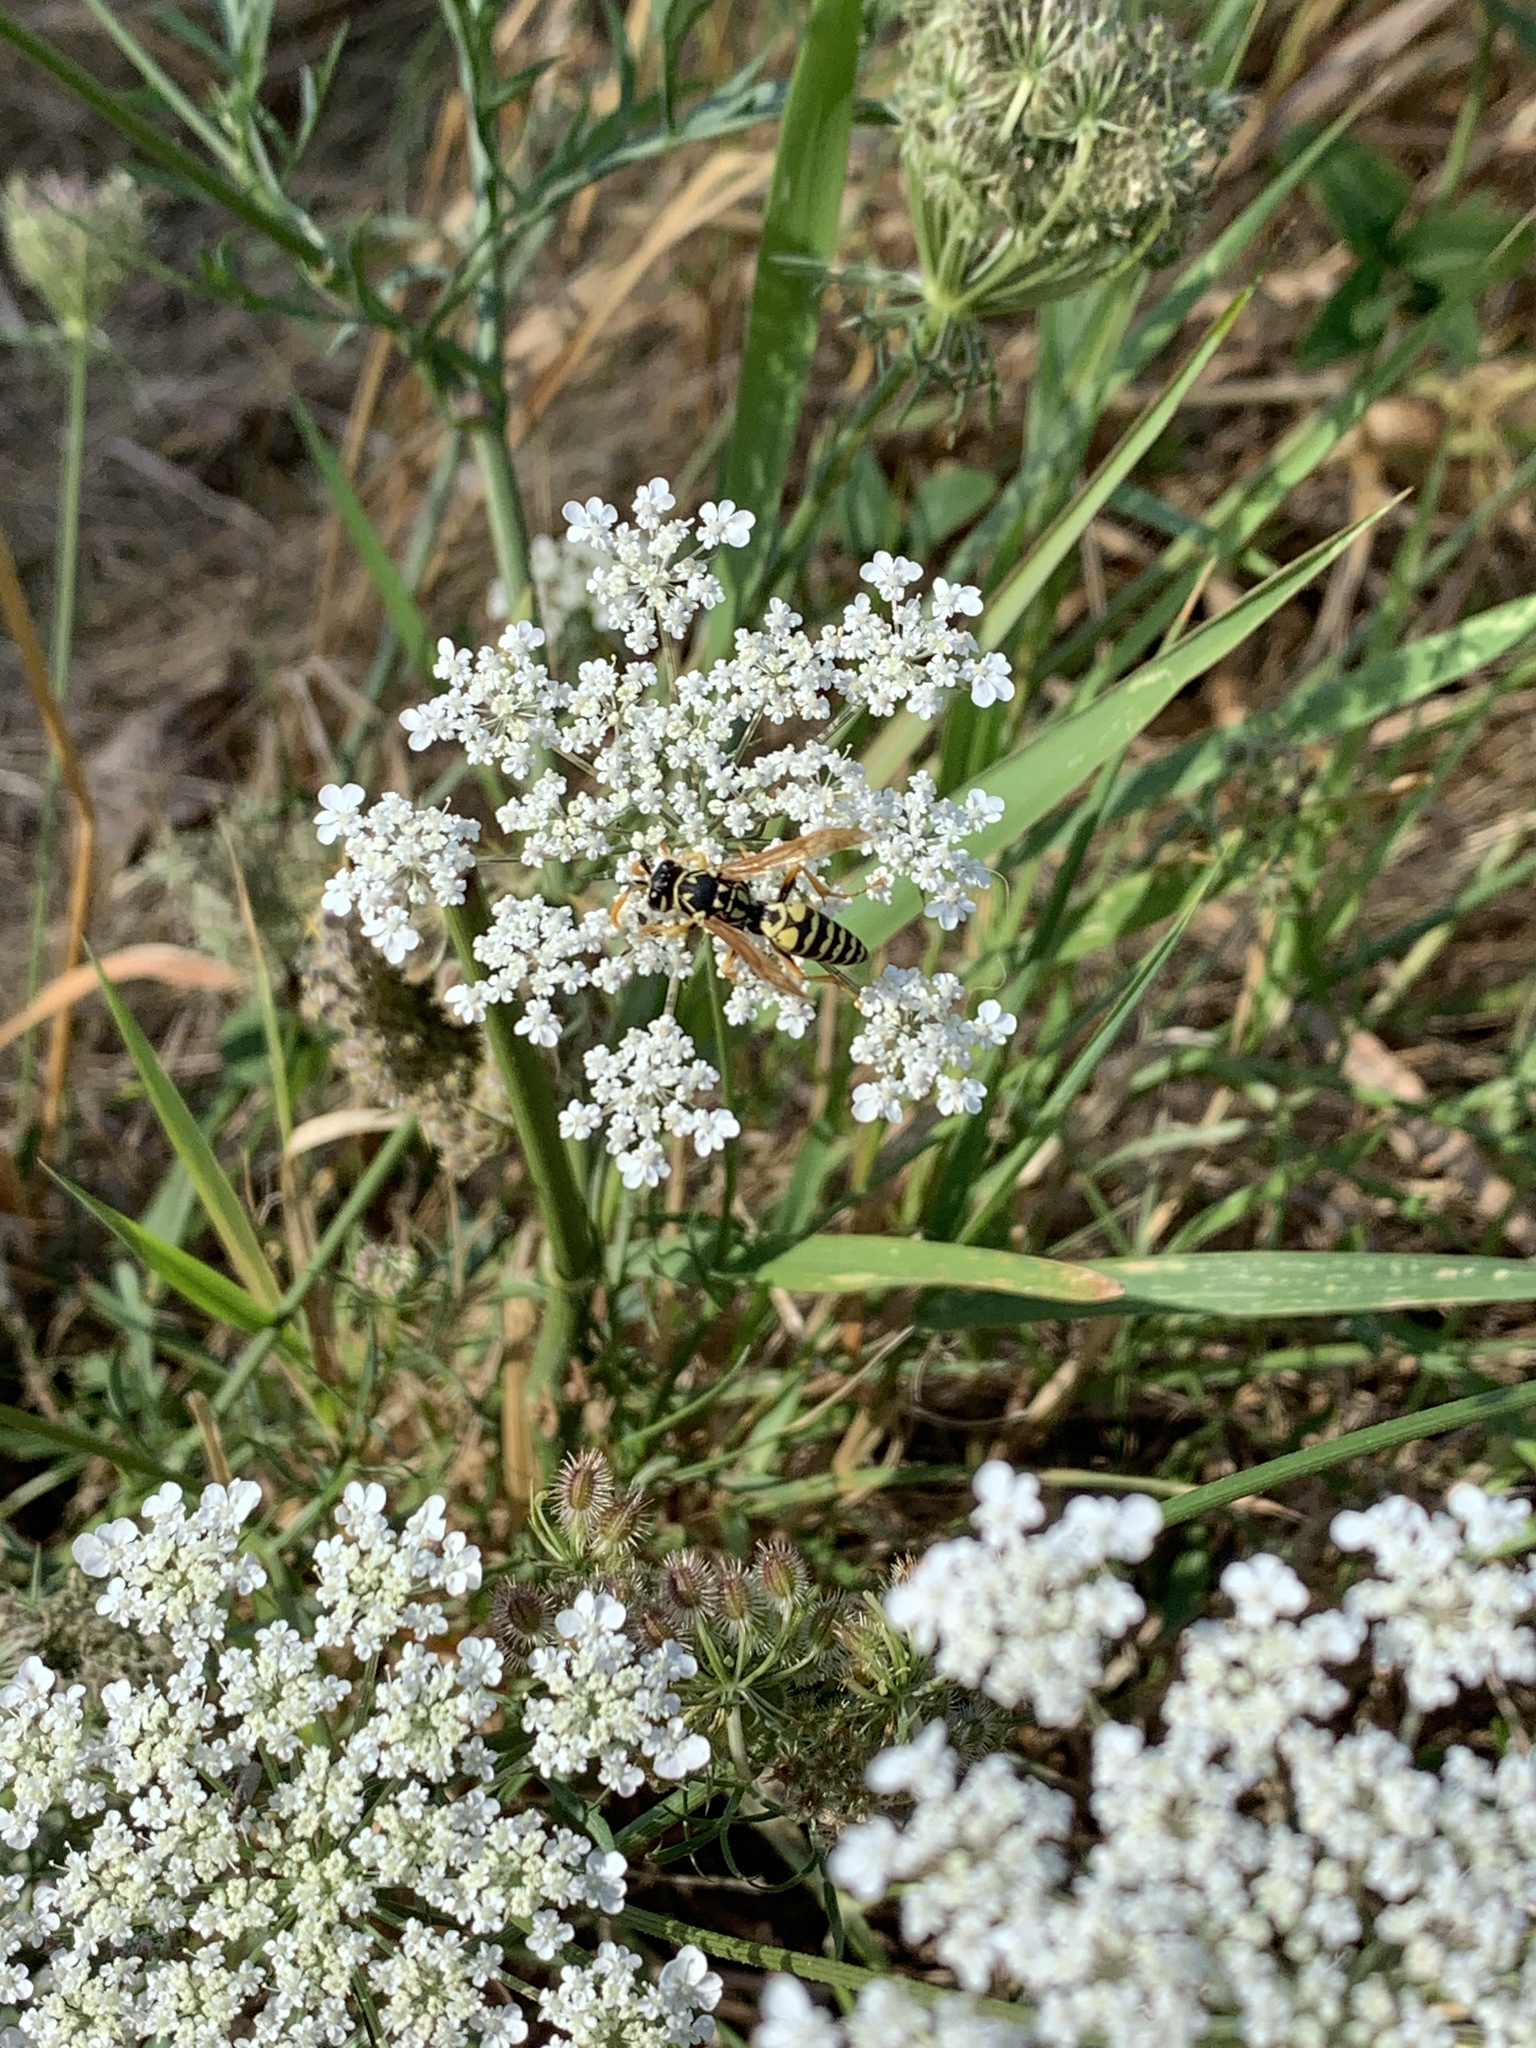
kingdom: Animalia
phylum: Arthropoda
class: Insecta
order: Hymenoptera
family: Eumenidae
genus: Polistes
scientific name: Polistes dominula
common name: Paper wasp
